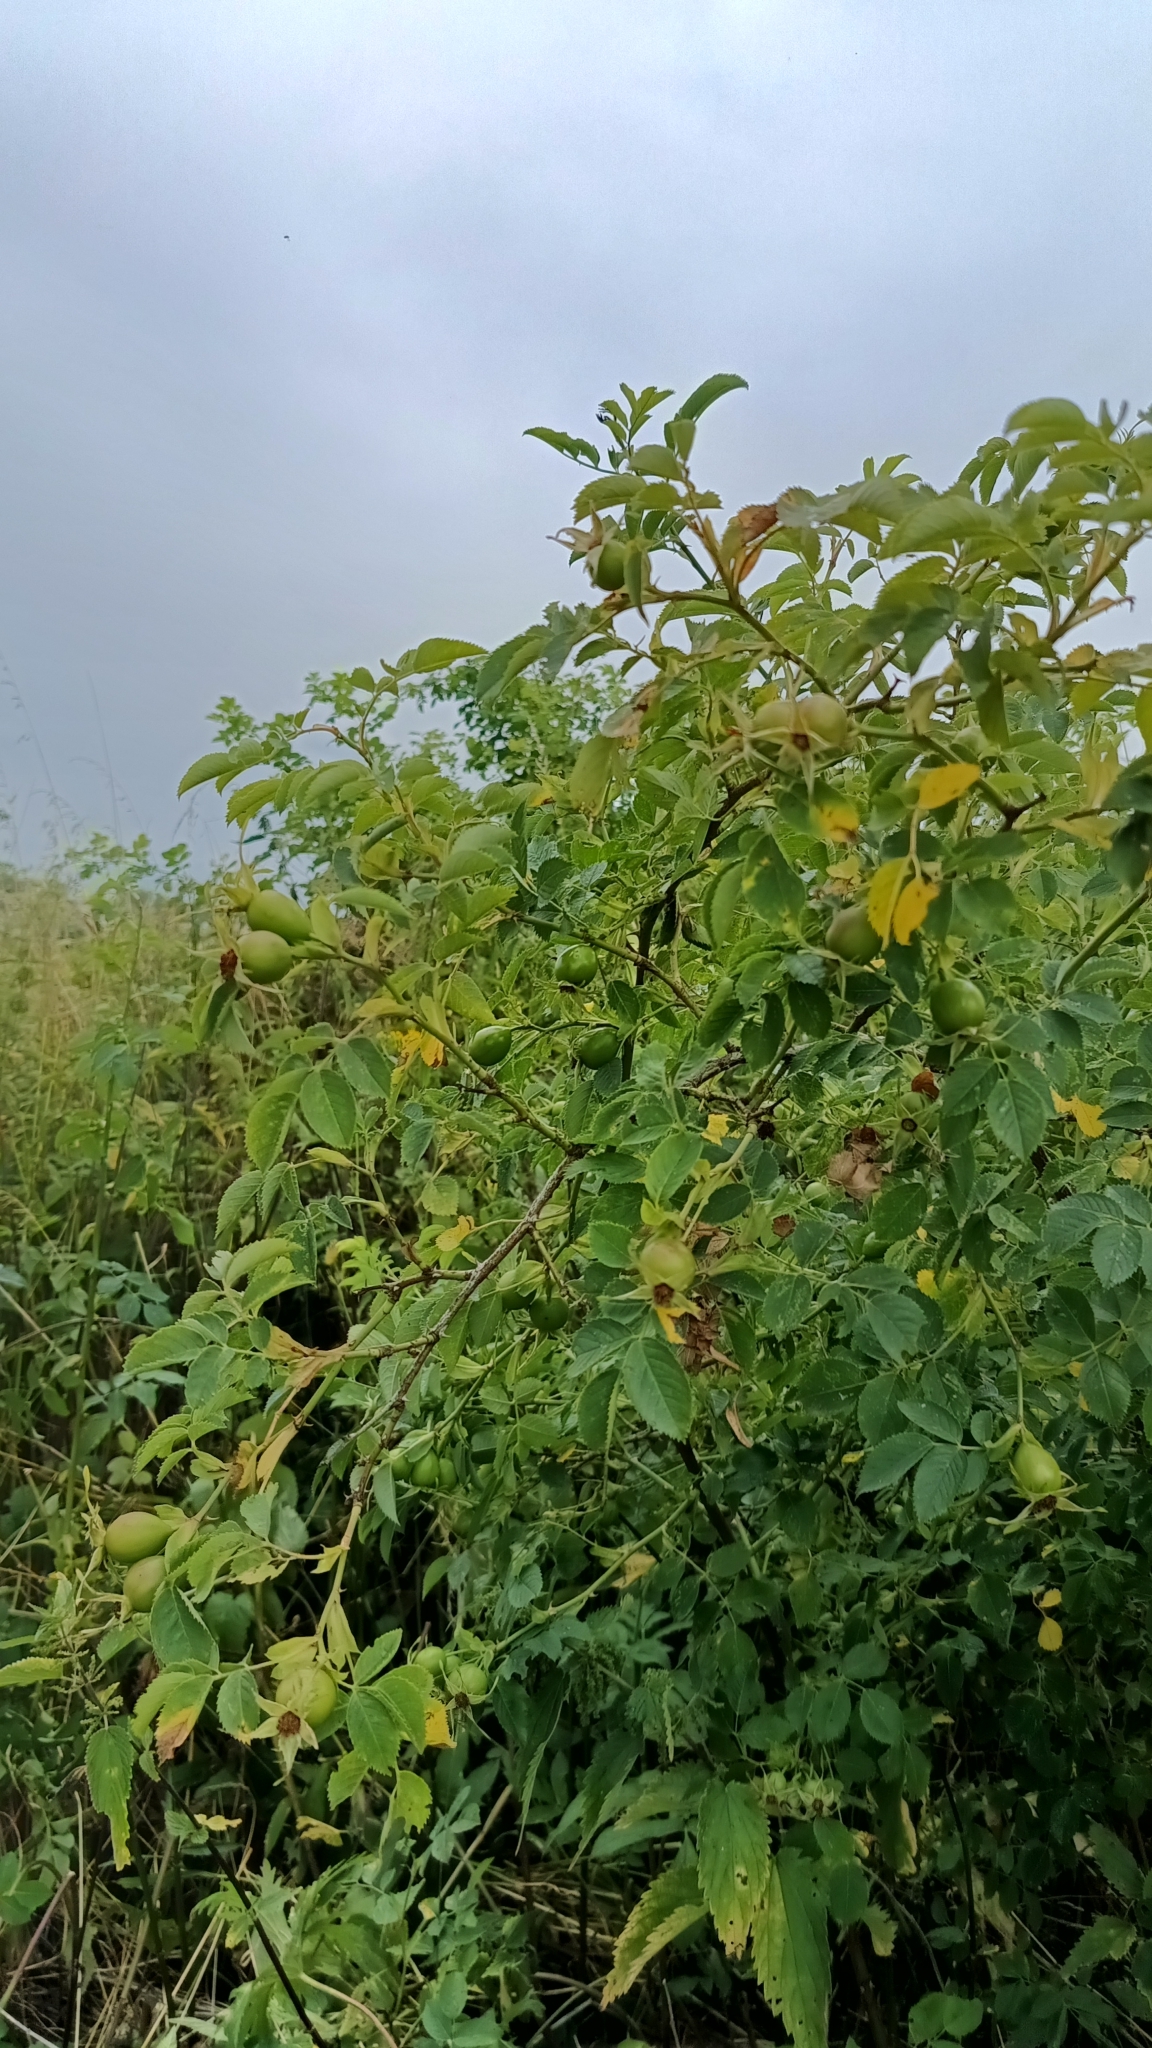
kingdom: Plantae
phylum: Tracheophyta
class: Magnoliopsida
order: Rosales
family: Rosaceae
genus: Rosa
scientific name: Rosa dumalis
